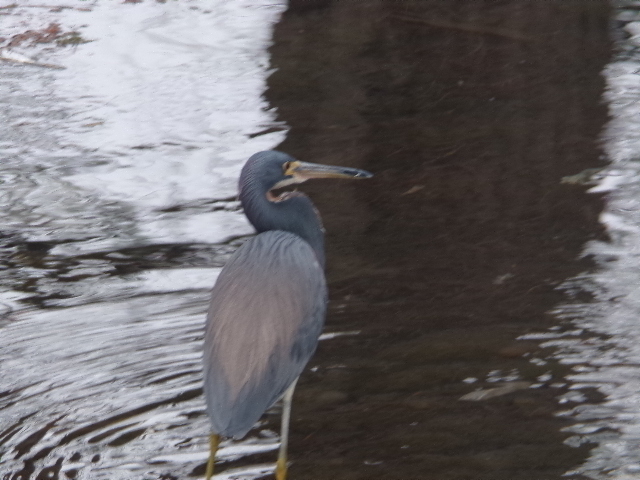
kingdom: Animalia
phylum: Chordata
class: Aves
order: Pelecaniformes
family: Ardeidae
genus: Egretta
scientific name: Egretta tricolor
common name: Tricolored heron
